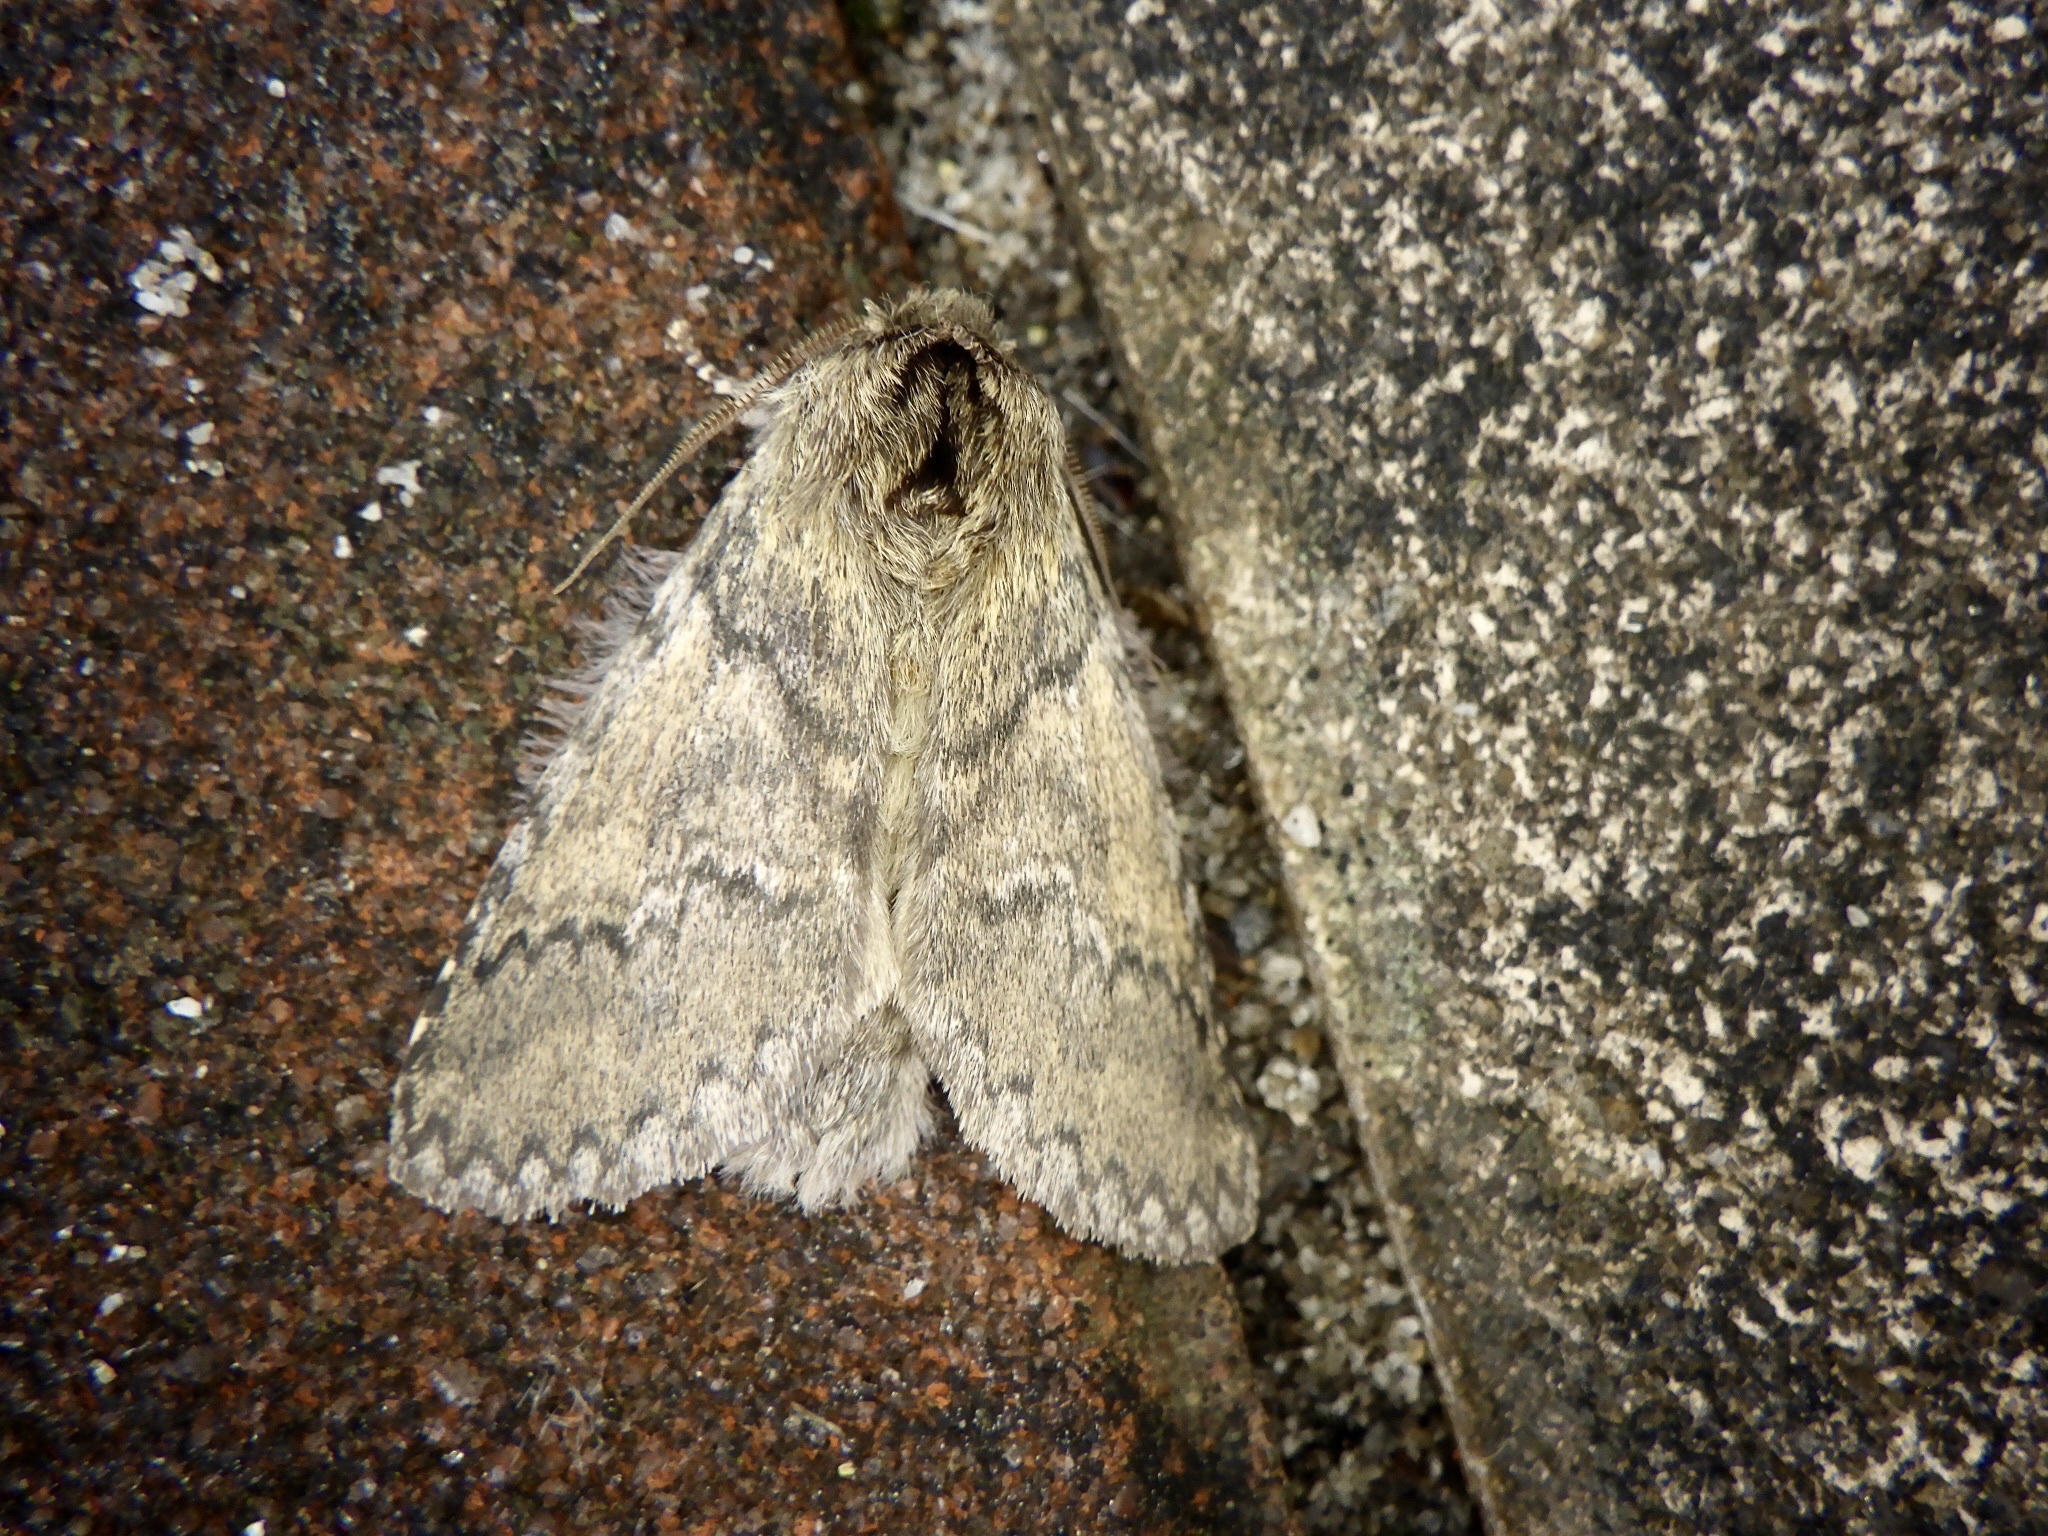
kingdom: Animalia
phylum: Arthropoda
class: Insecta
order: Lepidoptera
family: Notodontidae
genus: Disparia
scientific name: Disparia diluta
